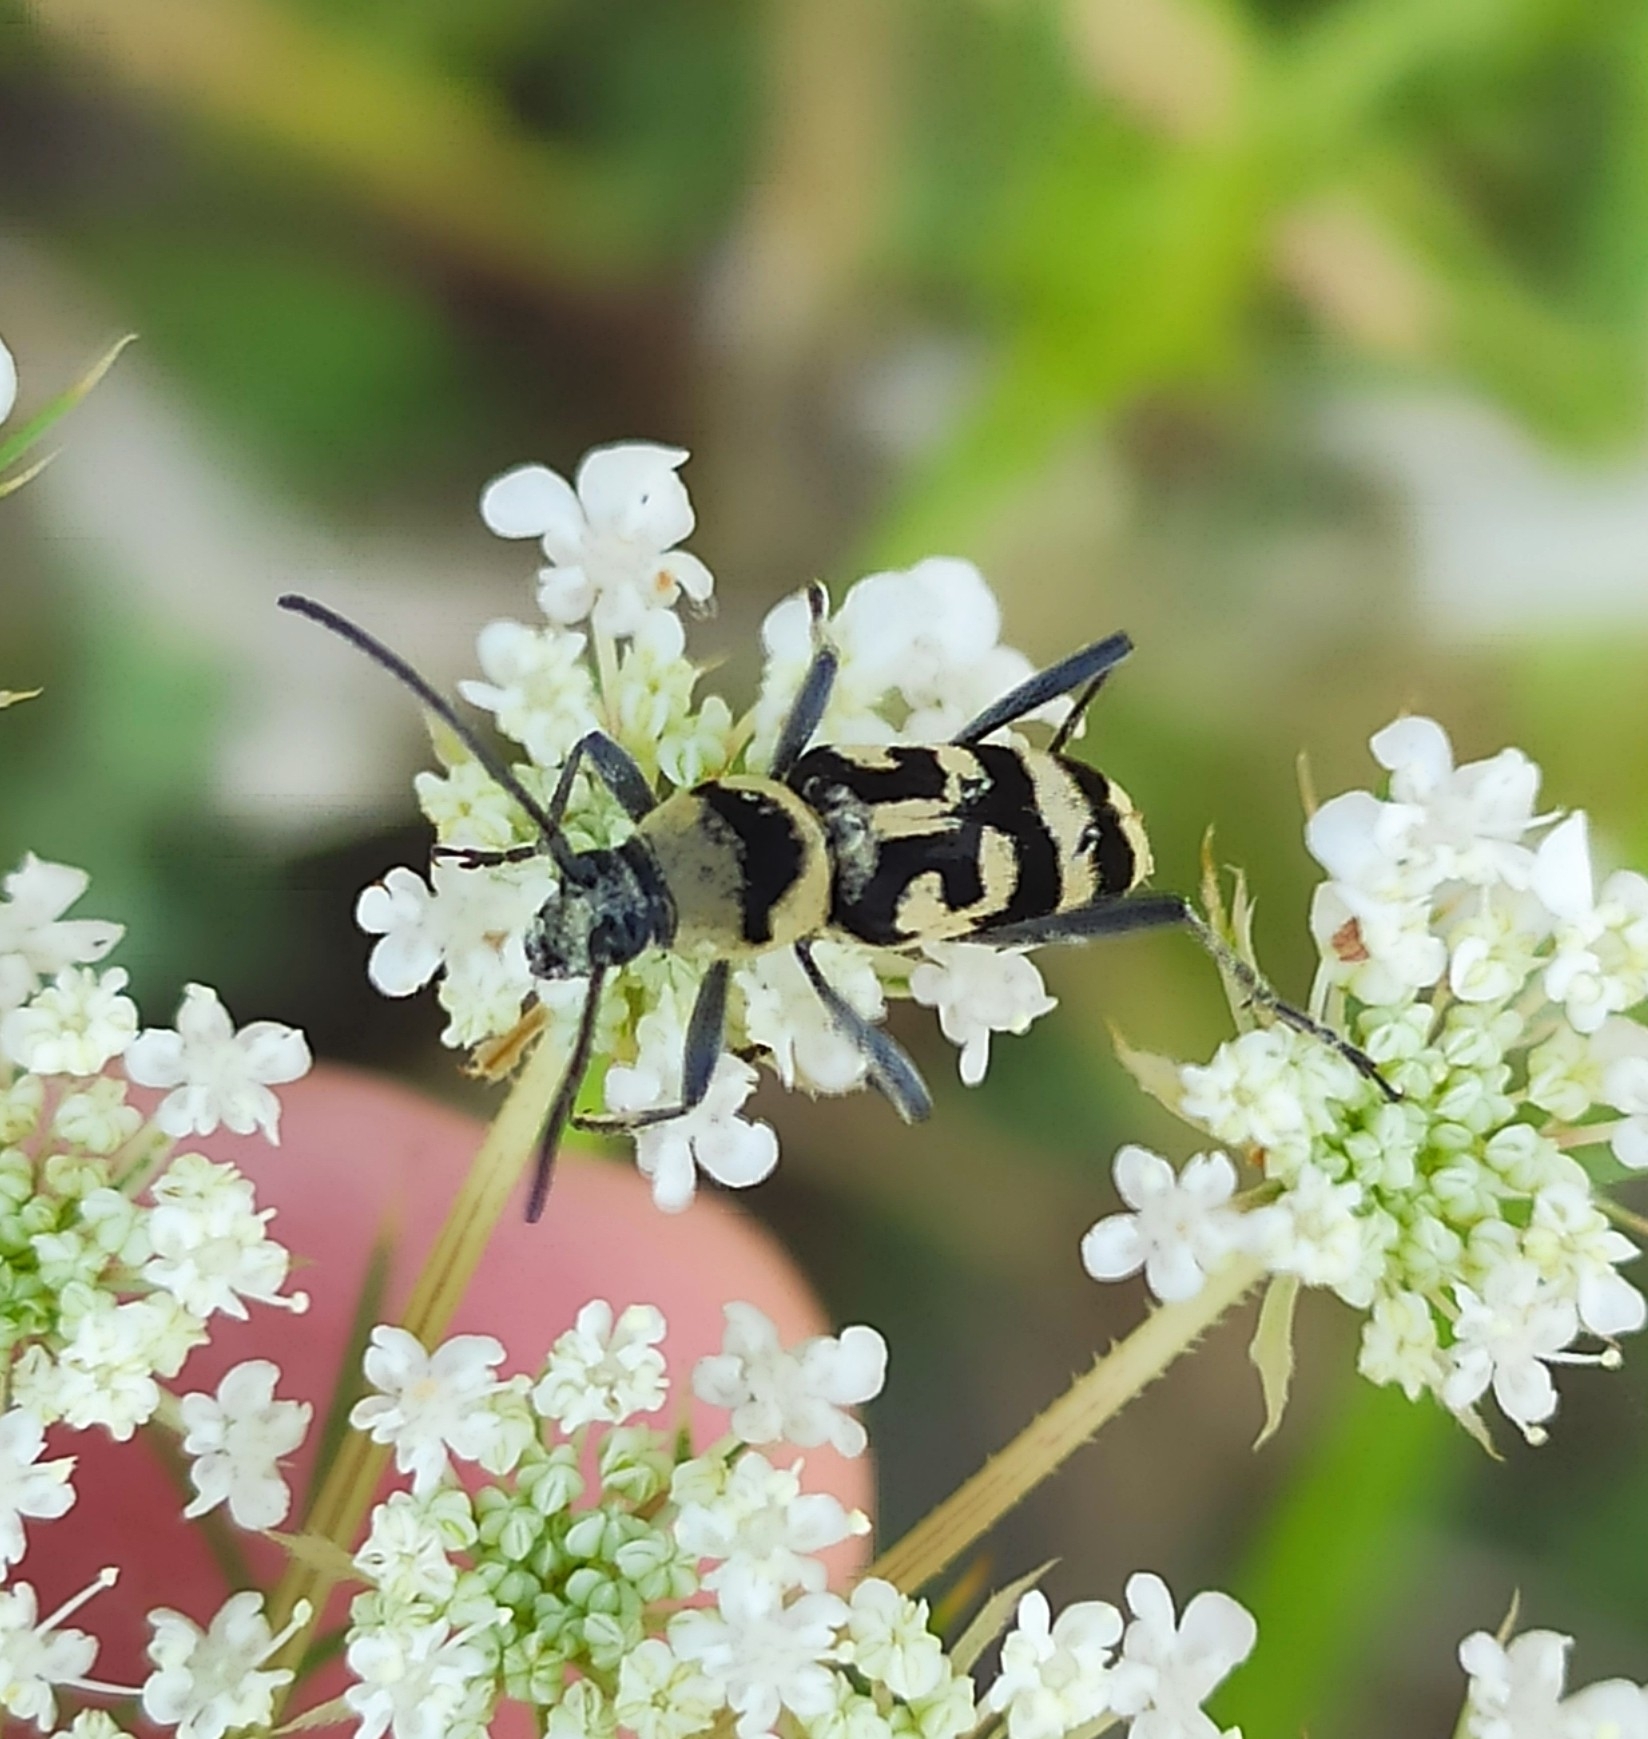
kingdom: Animalia
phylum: Arthropoda
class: Insecta
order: Coleoptera
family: Cerambycidae
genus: Chlorophorus
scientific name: Chlorophorus varius
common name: Grape wood borer
